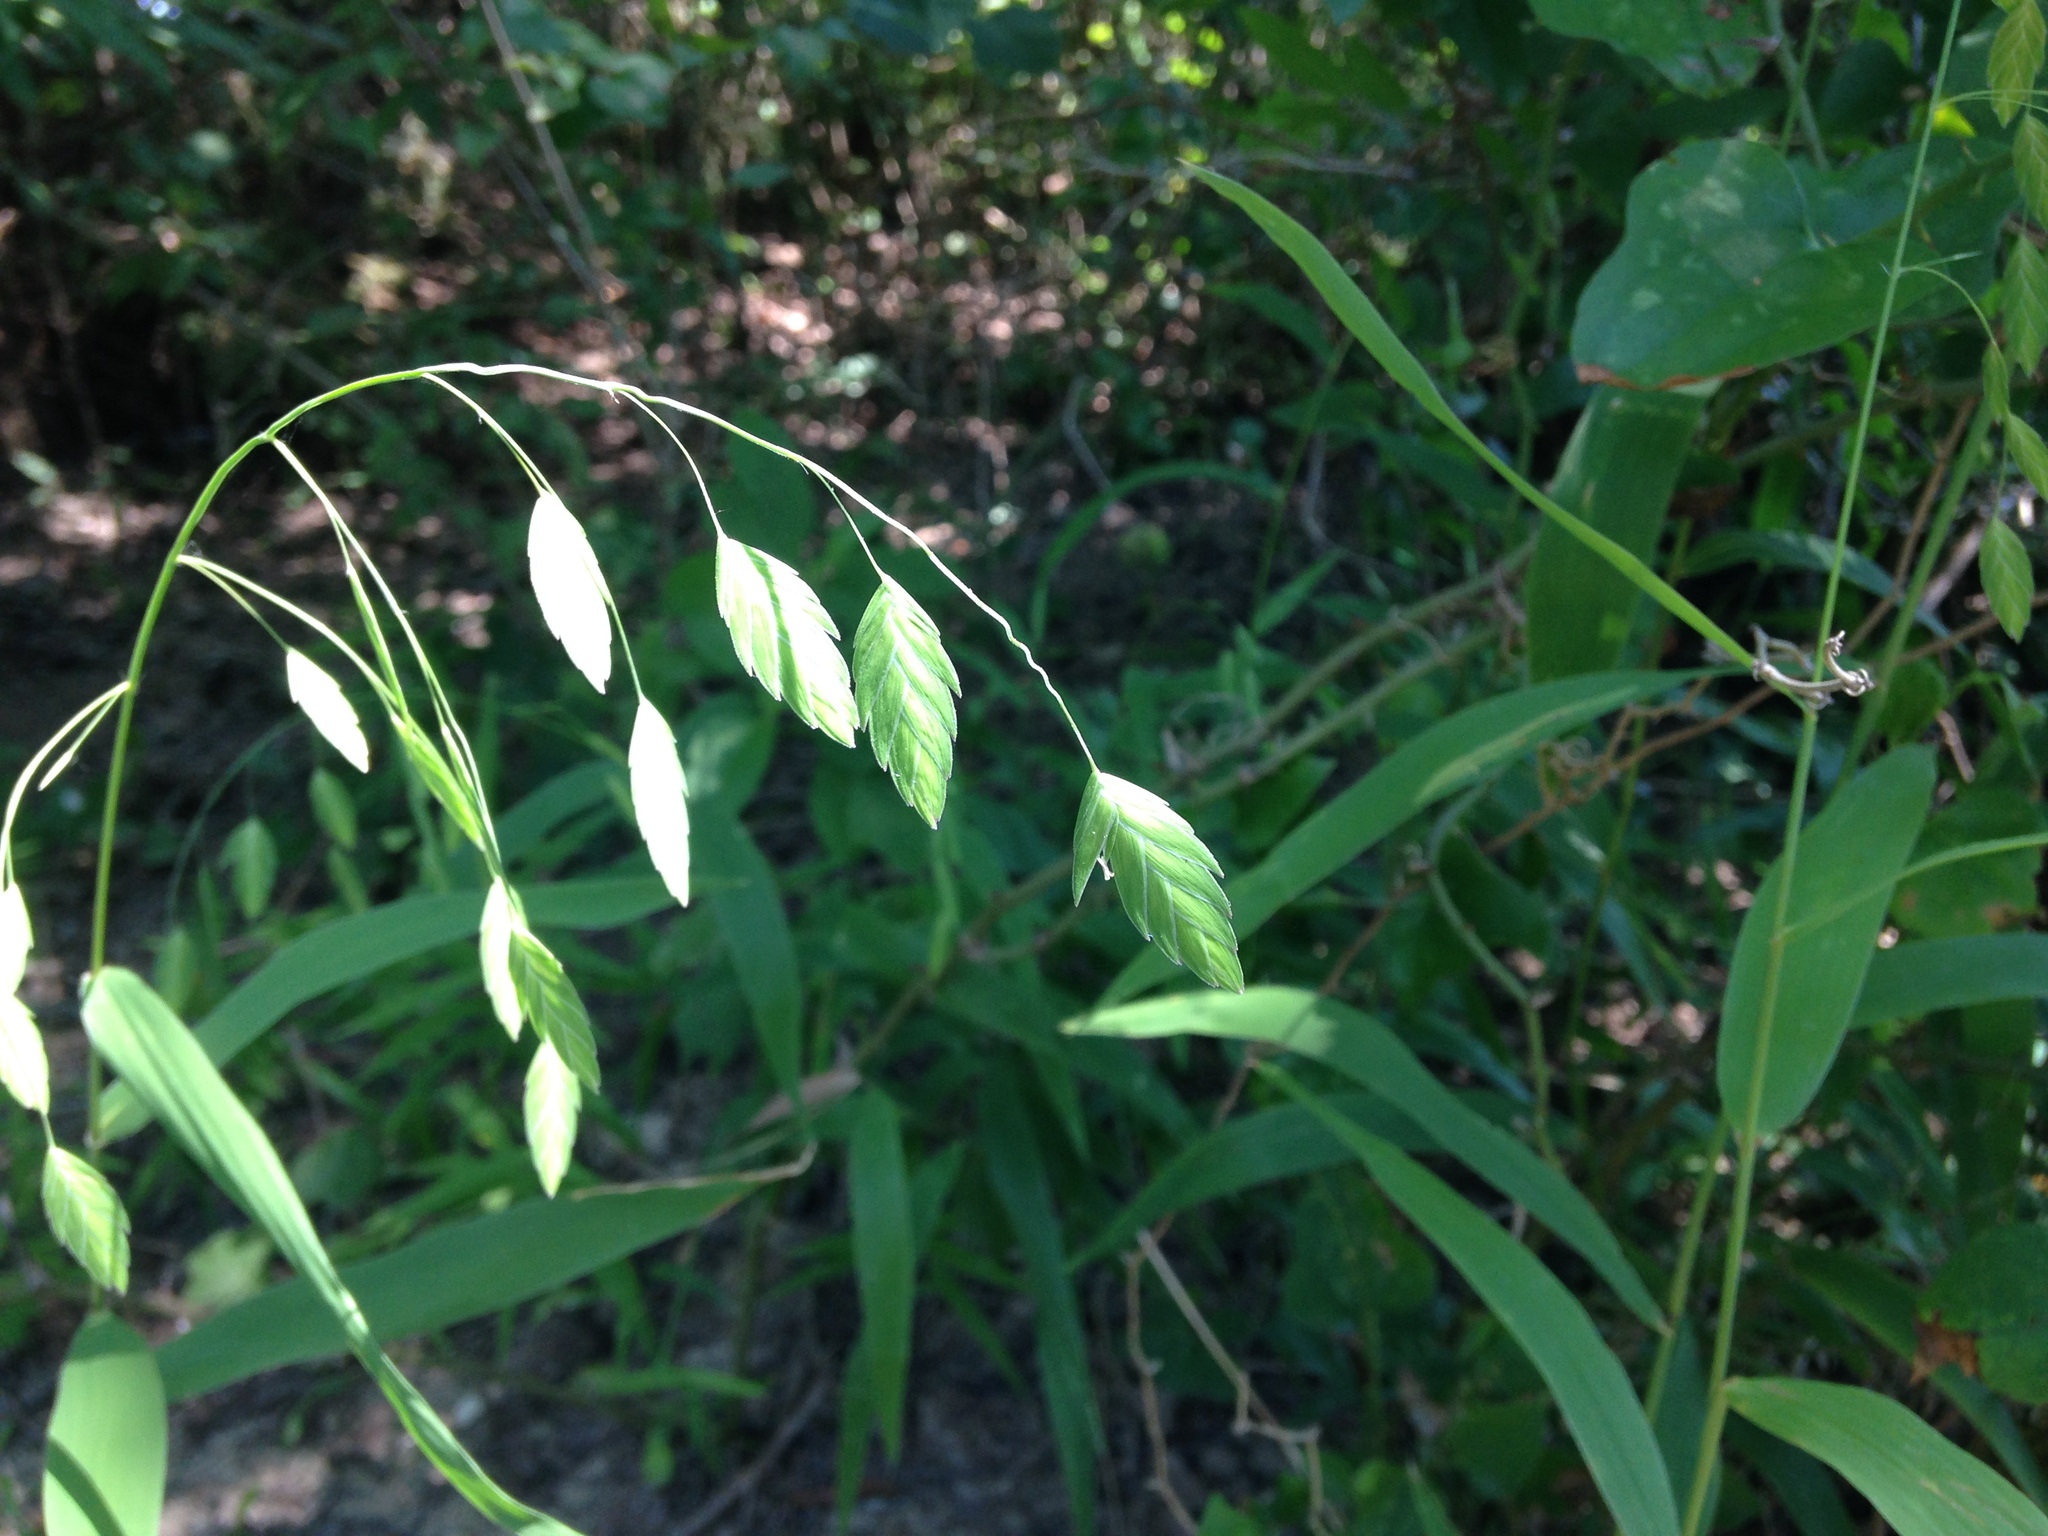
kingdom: Plantae
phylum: Tracheophyta
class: Liliopsida
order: Poales
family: Poaceae
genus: Chasmanthium
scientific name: Chasmanthium latifolium
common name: Broad-leaved chasmanthium
